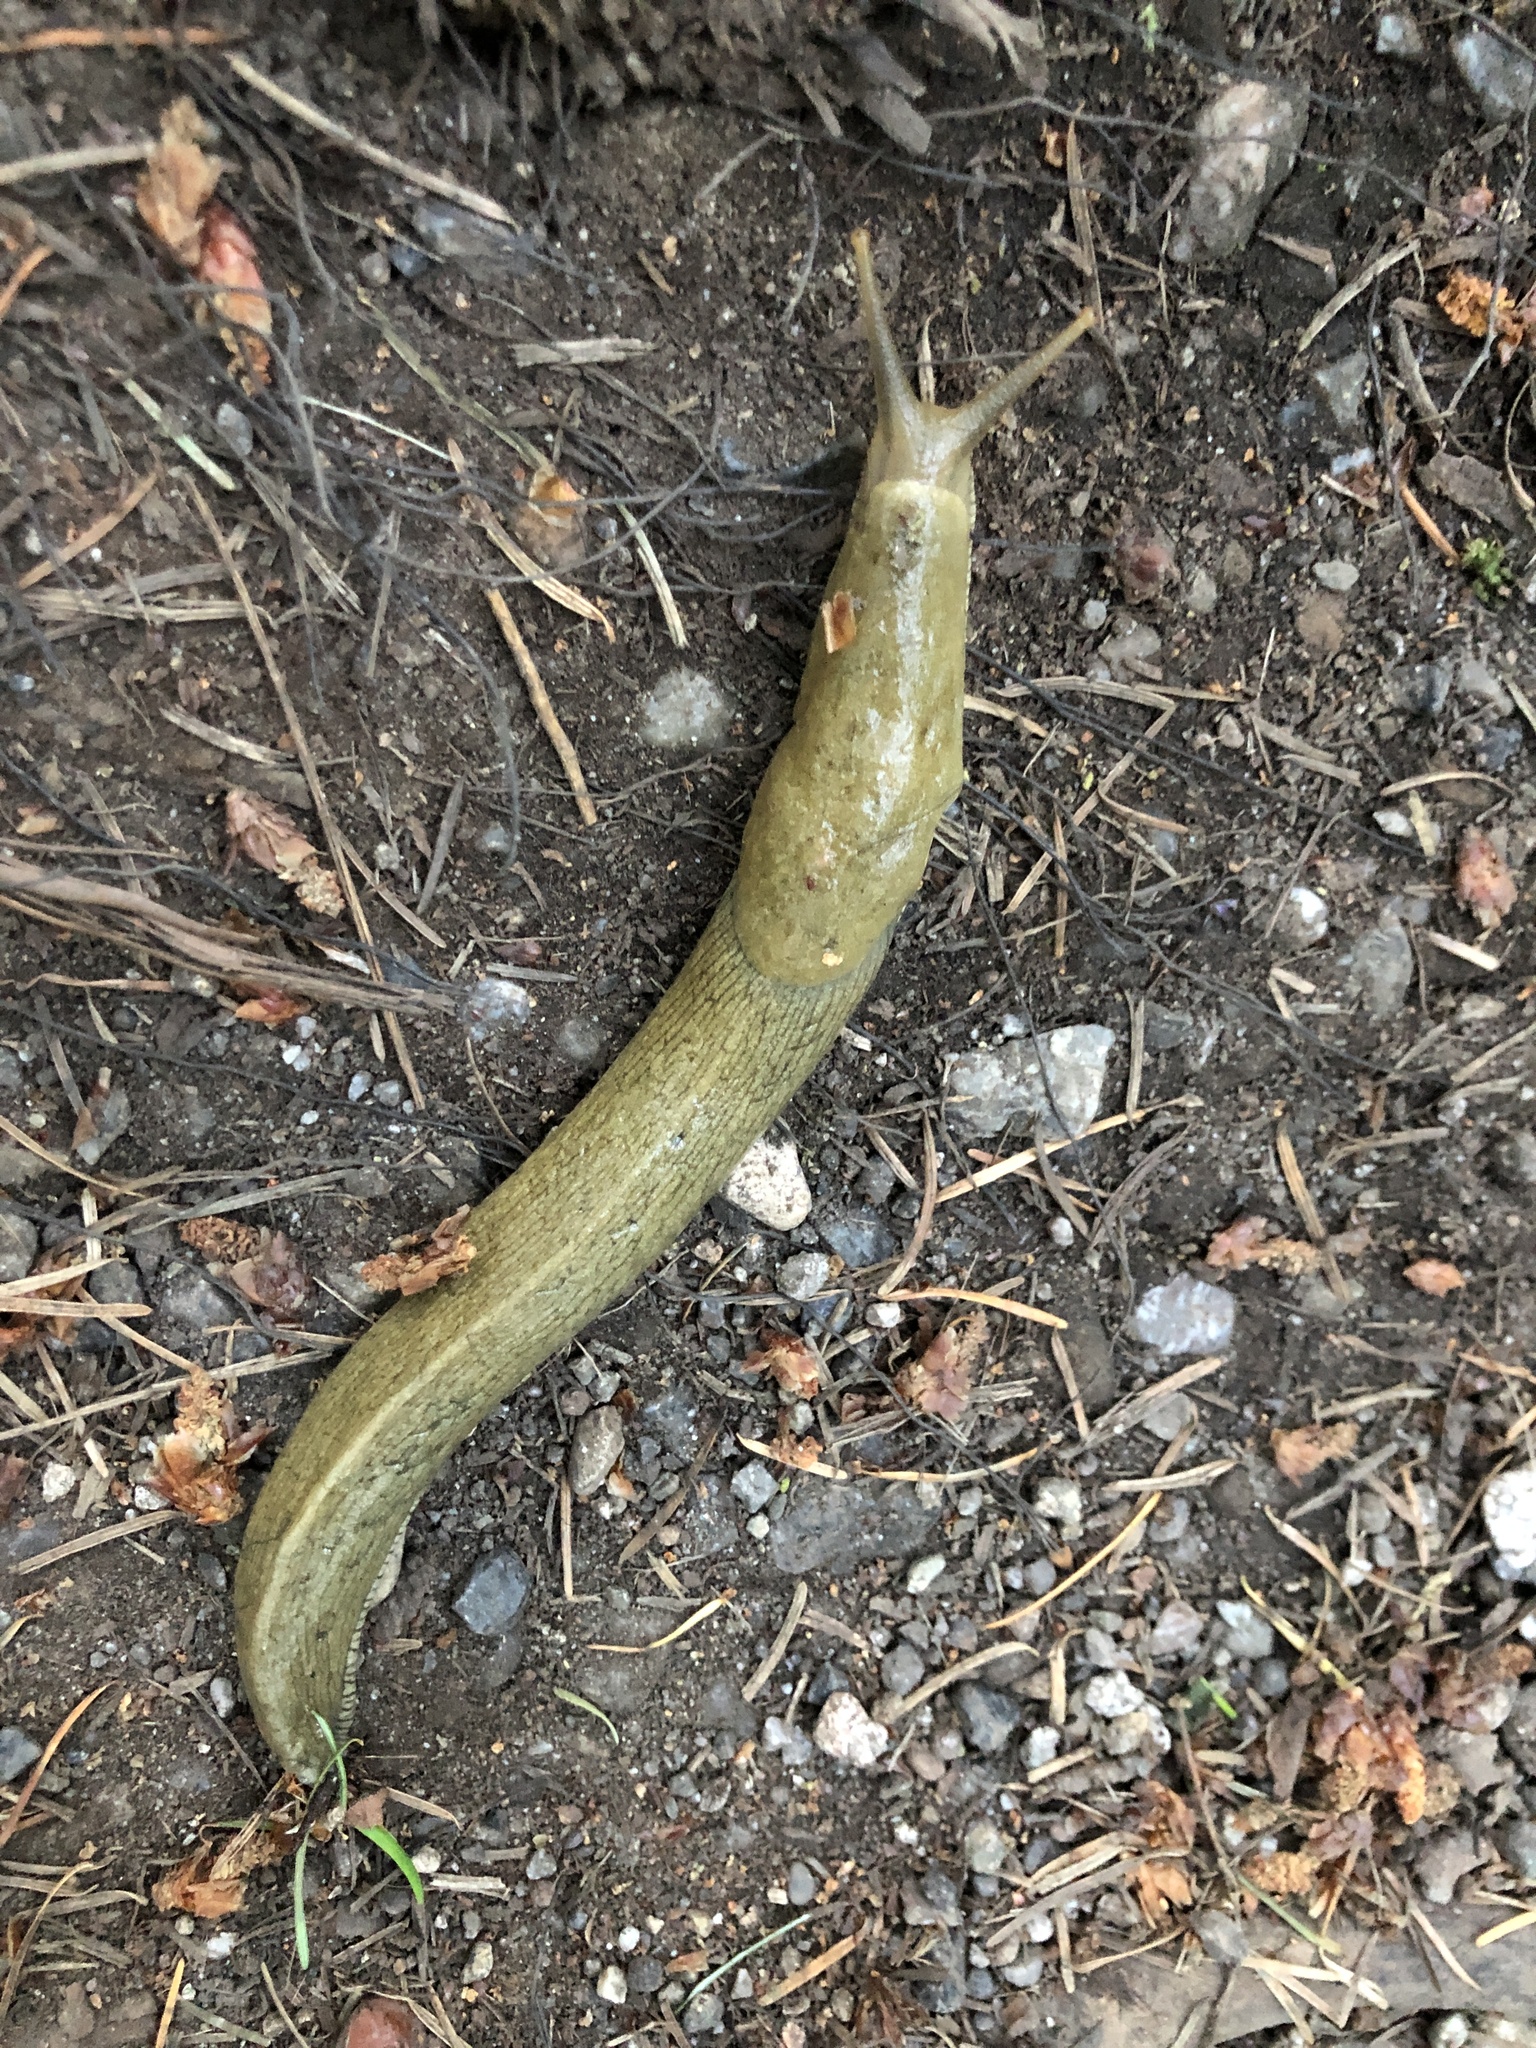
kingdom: Animalia
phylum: Mollusca
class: Gastropoda
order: Stylommatophora
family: Ariolimacidae
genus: Ariolimax
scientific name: Ariolimax columbianus
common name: Pacific banana slug
